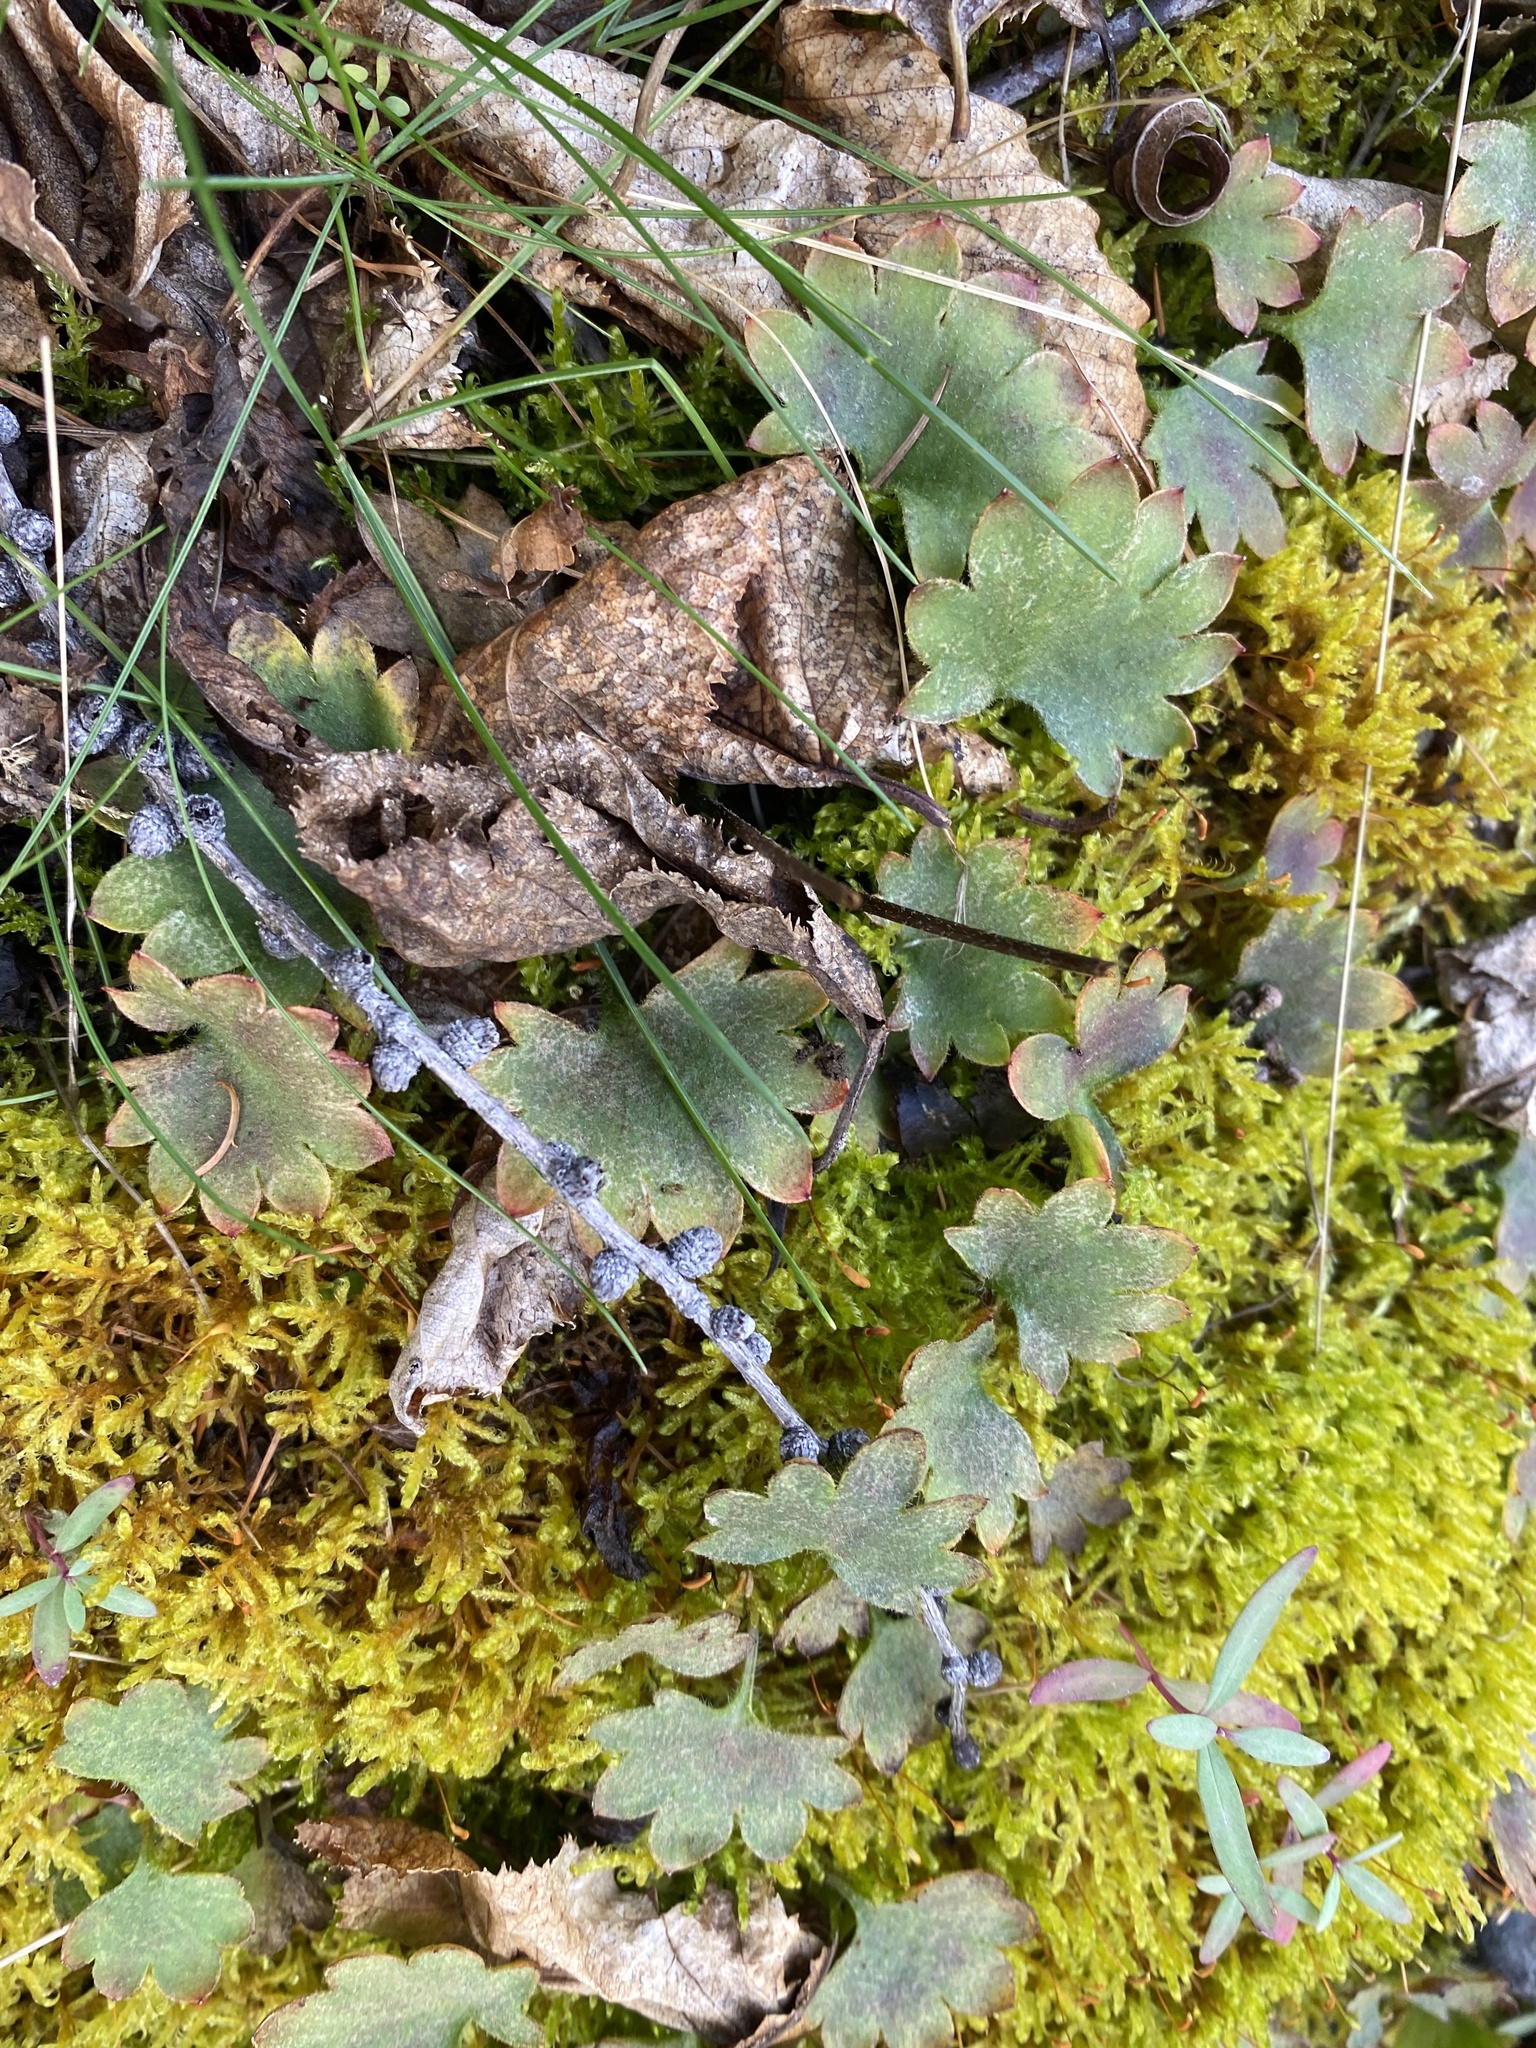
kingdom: Plantae
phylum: Tracheophyta
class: Magnoliopsida
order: Saxifragales
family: Saxifragaceae
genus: Micranthes
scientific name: Micranthes nelsoniana
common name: Nelson's saxifrage
